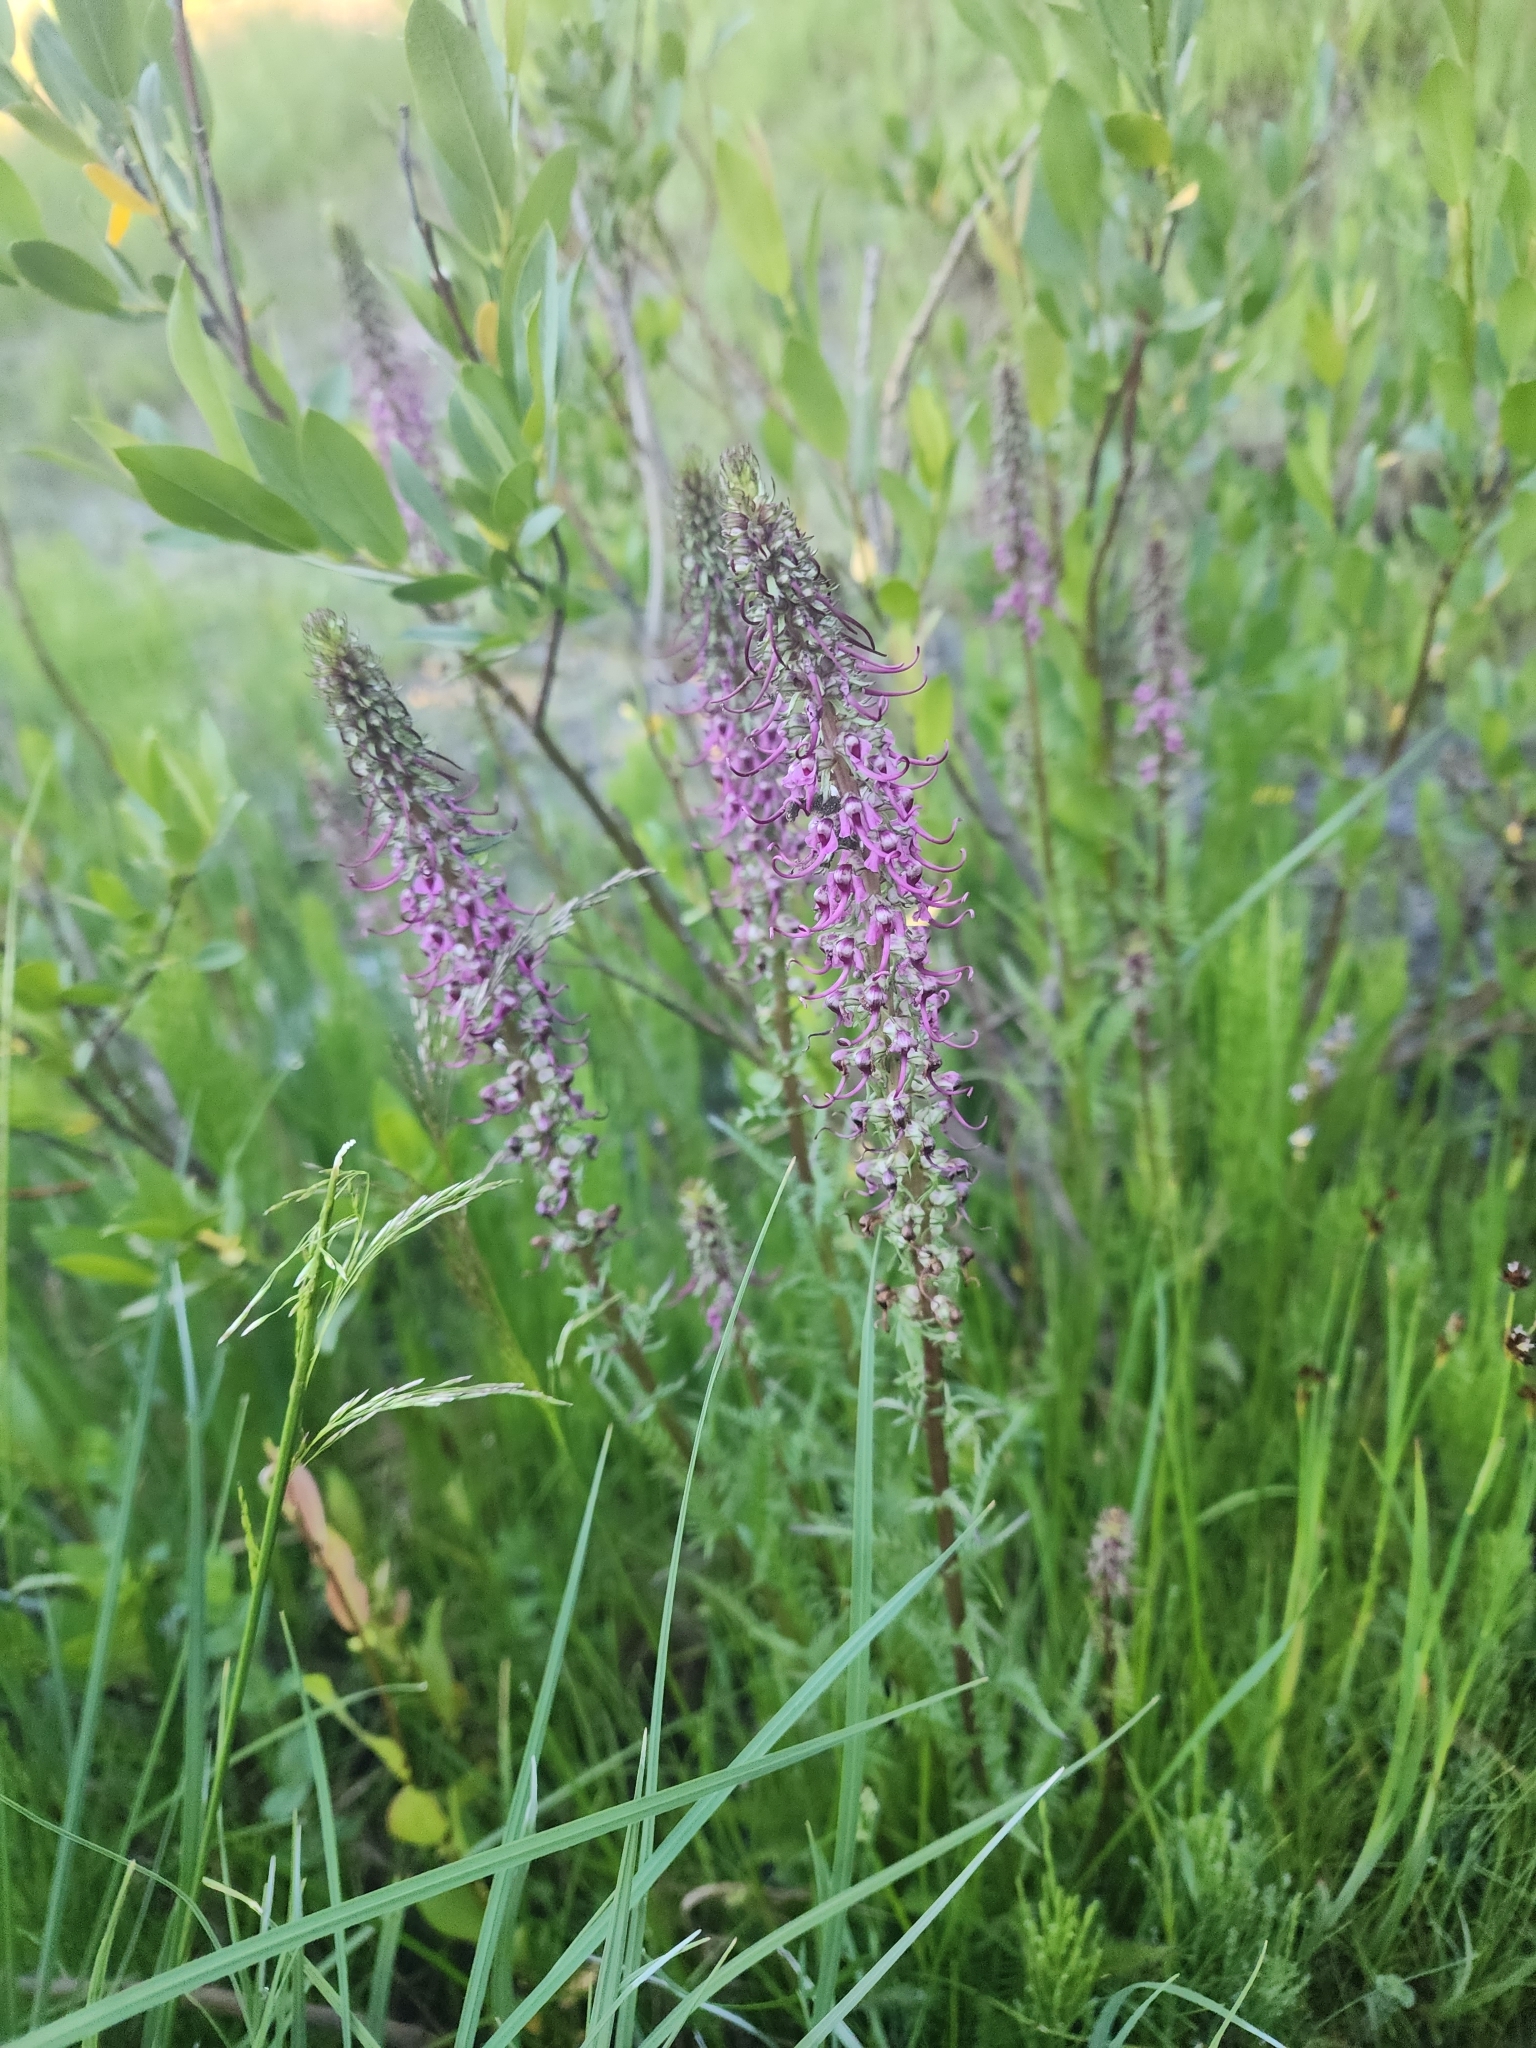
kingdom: Plantae
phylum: Tracheophyta
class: Magnoliopsida
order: Lamiales
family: Orobanchaceae
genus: Pedicularis
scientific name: Pedicularis groenlandica
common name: Elephant's-head
